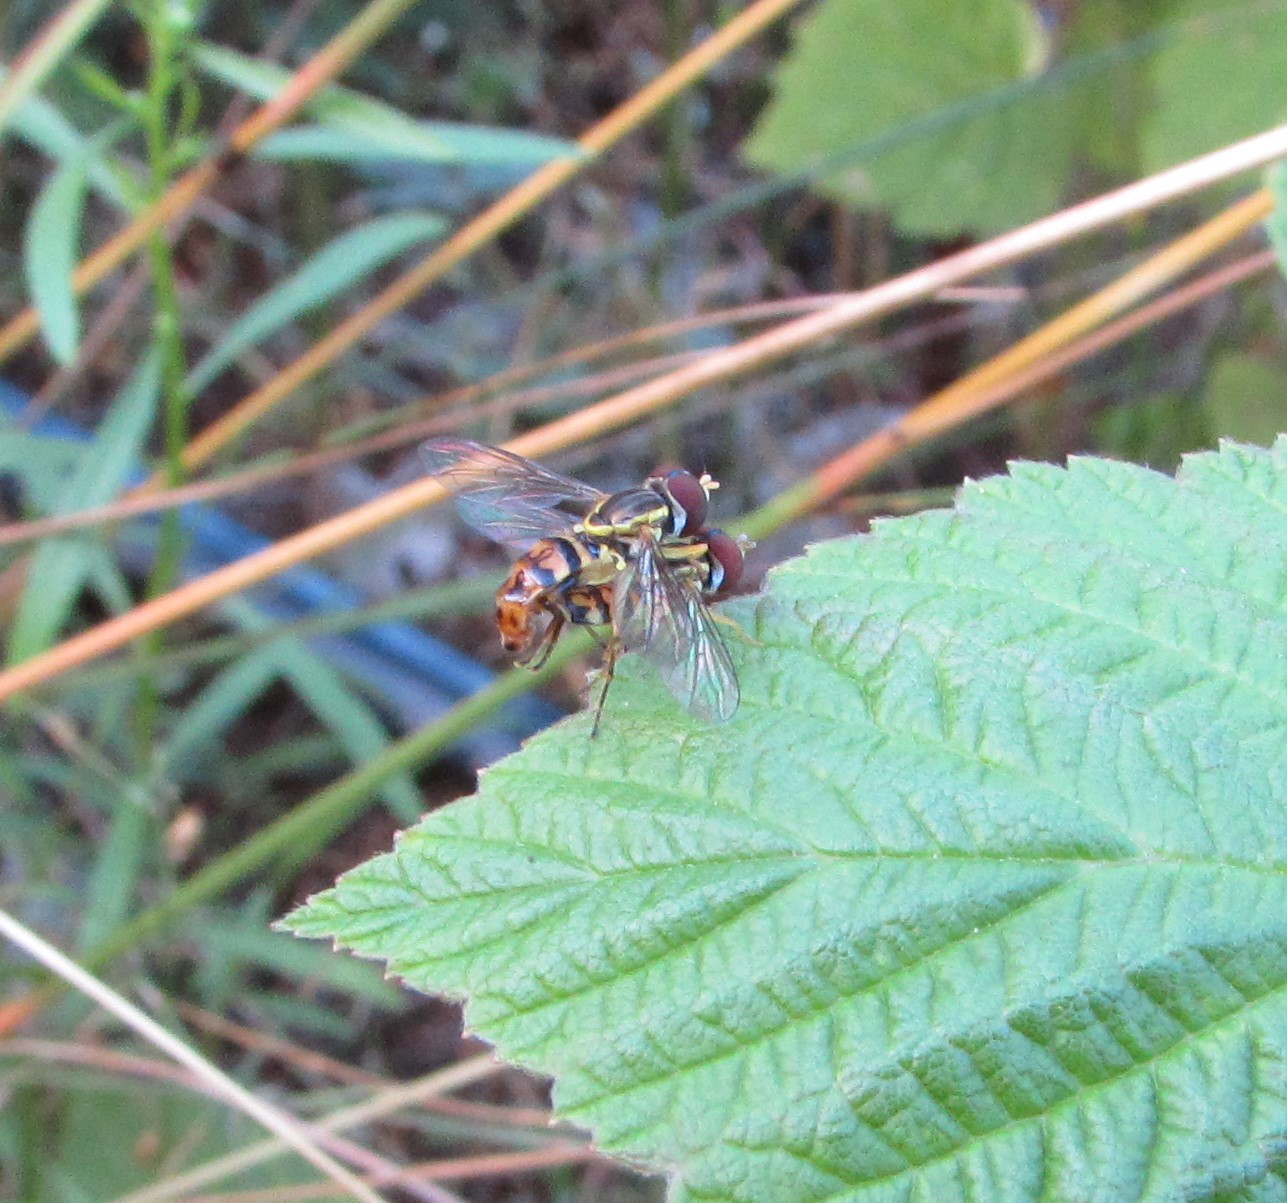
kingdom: Animalia
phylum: Arthropoda
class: Insecta
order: Diptera
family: Syrphidae
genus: Toxomerus
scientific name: Toxomerus geminatus
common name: Eastern calligrapher
